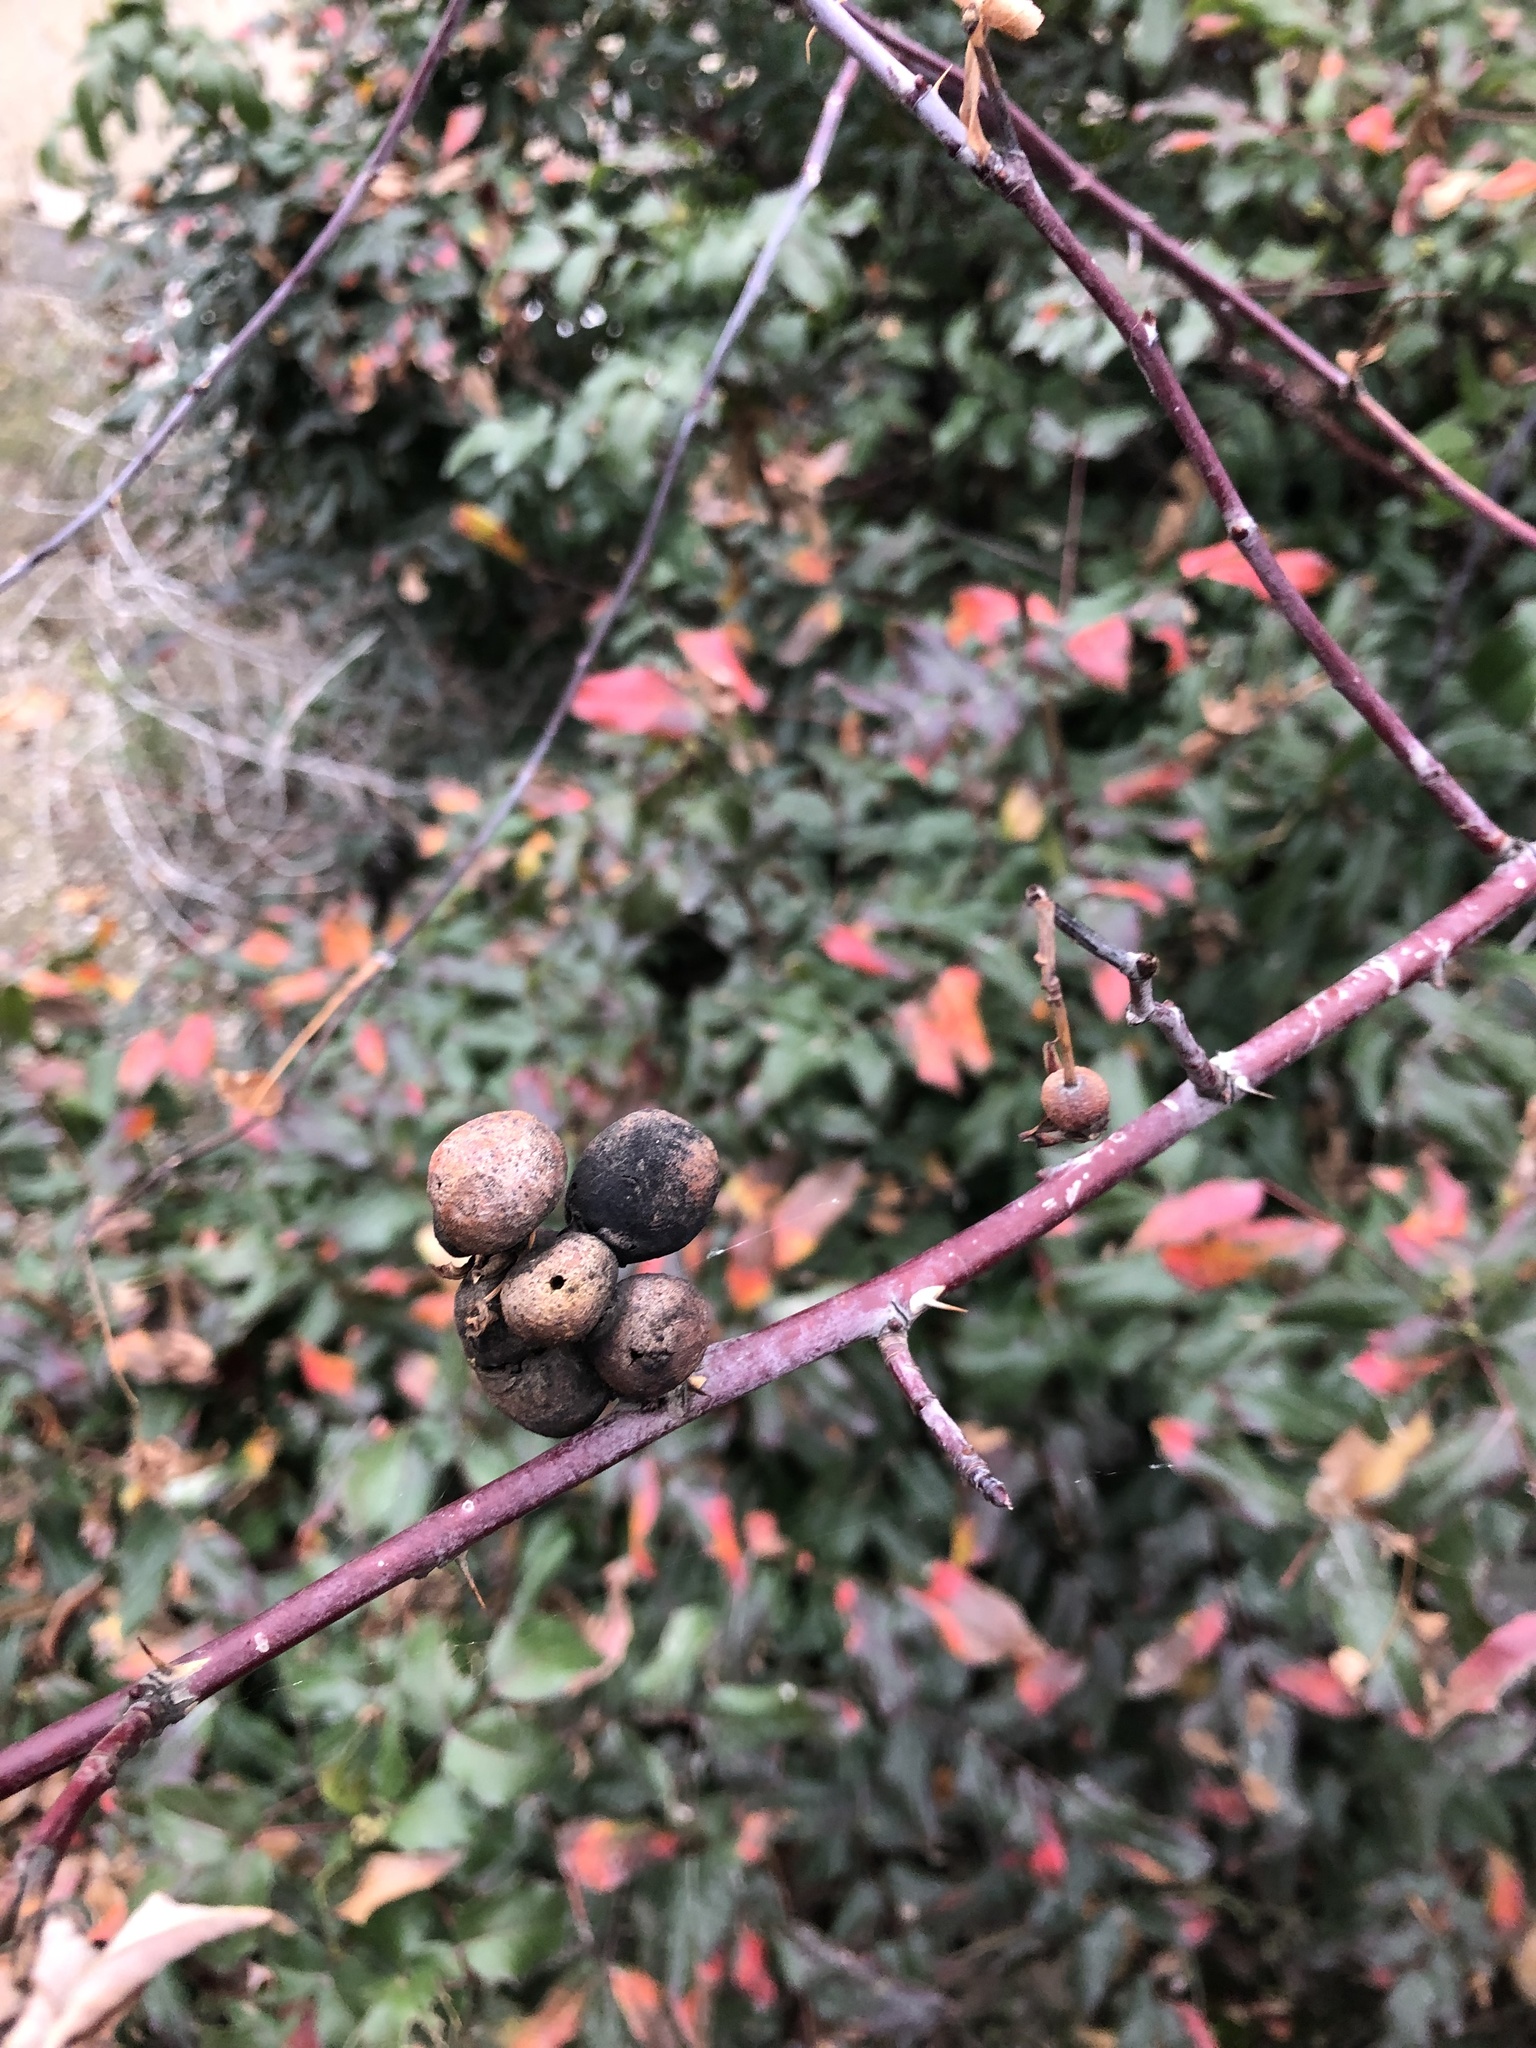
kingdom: Animalia
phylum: Arthropoda
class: Insecta
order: Hymenoptera
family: Cynipidae
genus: Diplolepis
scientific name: Diplolepis variabilis
